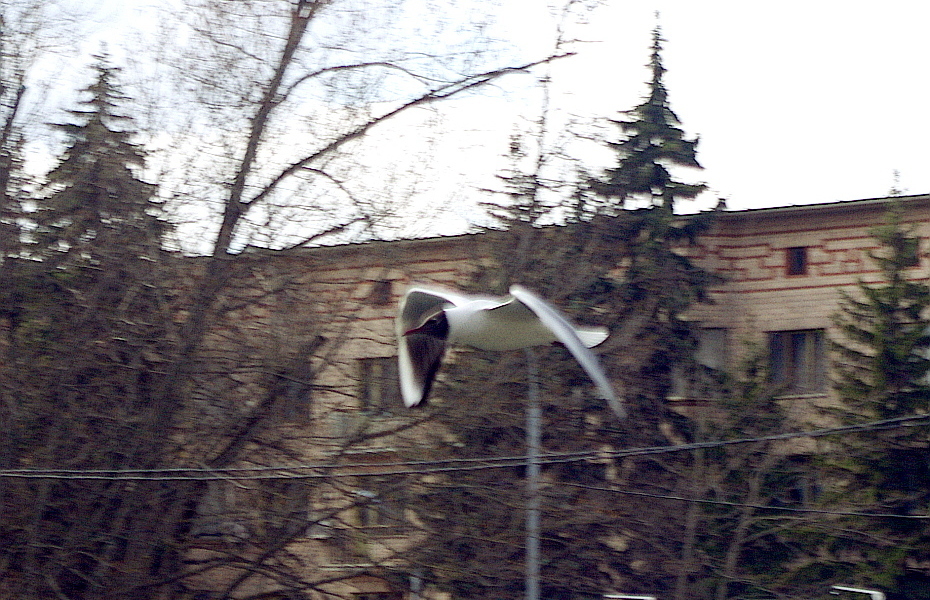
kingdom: Animalia
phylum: Chordata
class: Aves
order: Charadriiformes
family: Laridae
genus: Chroicocephalus
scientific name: Chroicocephalus ridibundus
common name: Black-headed gull
